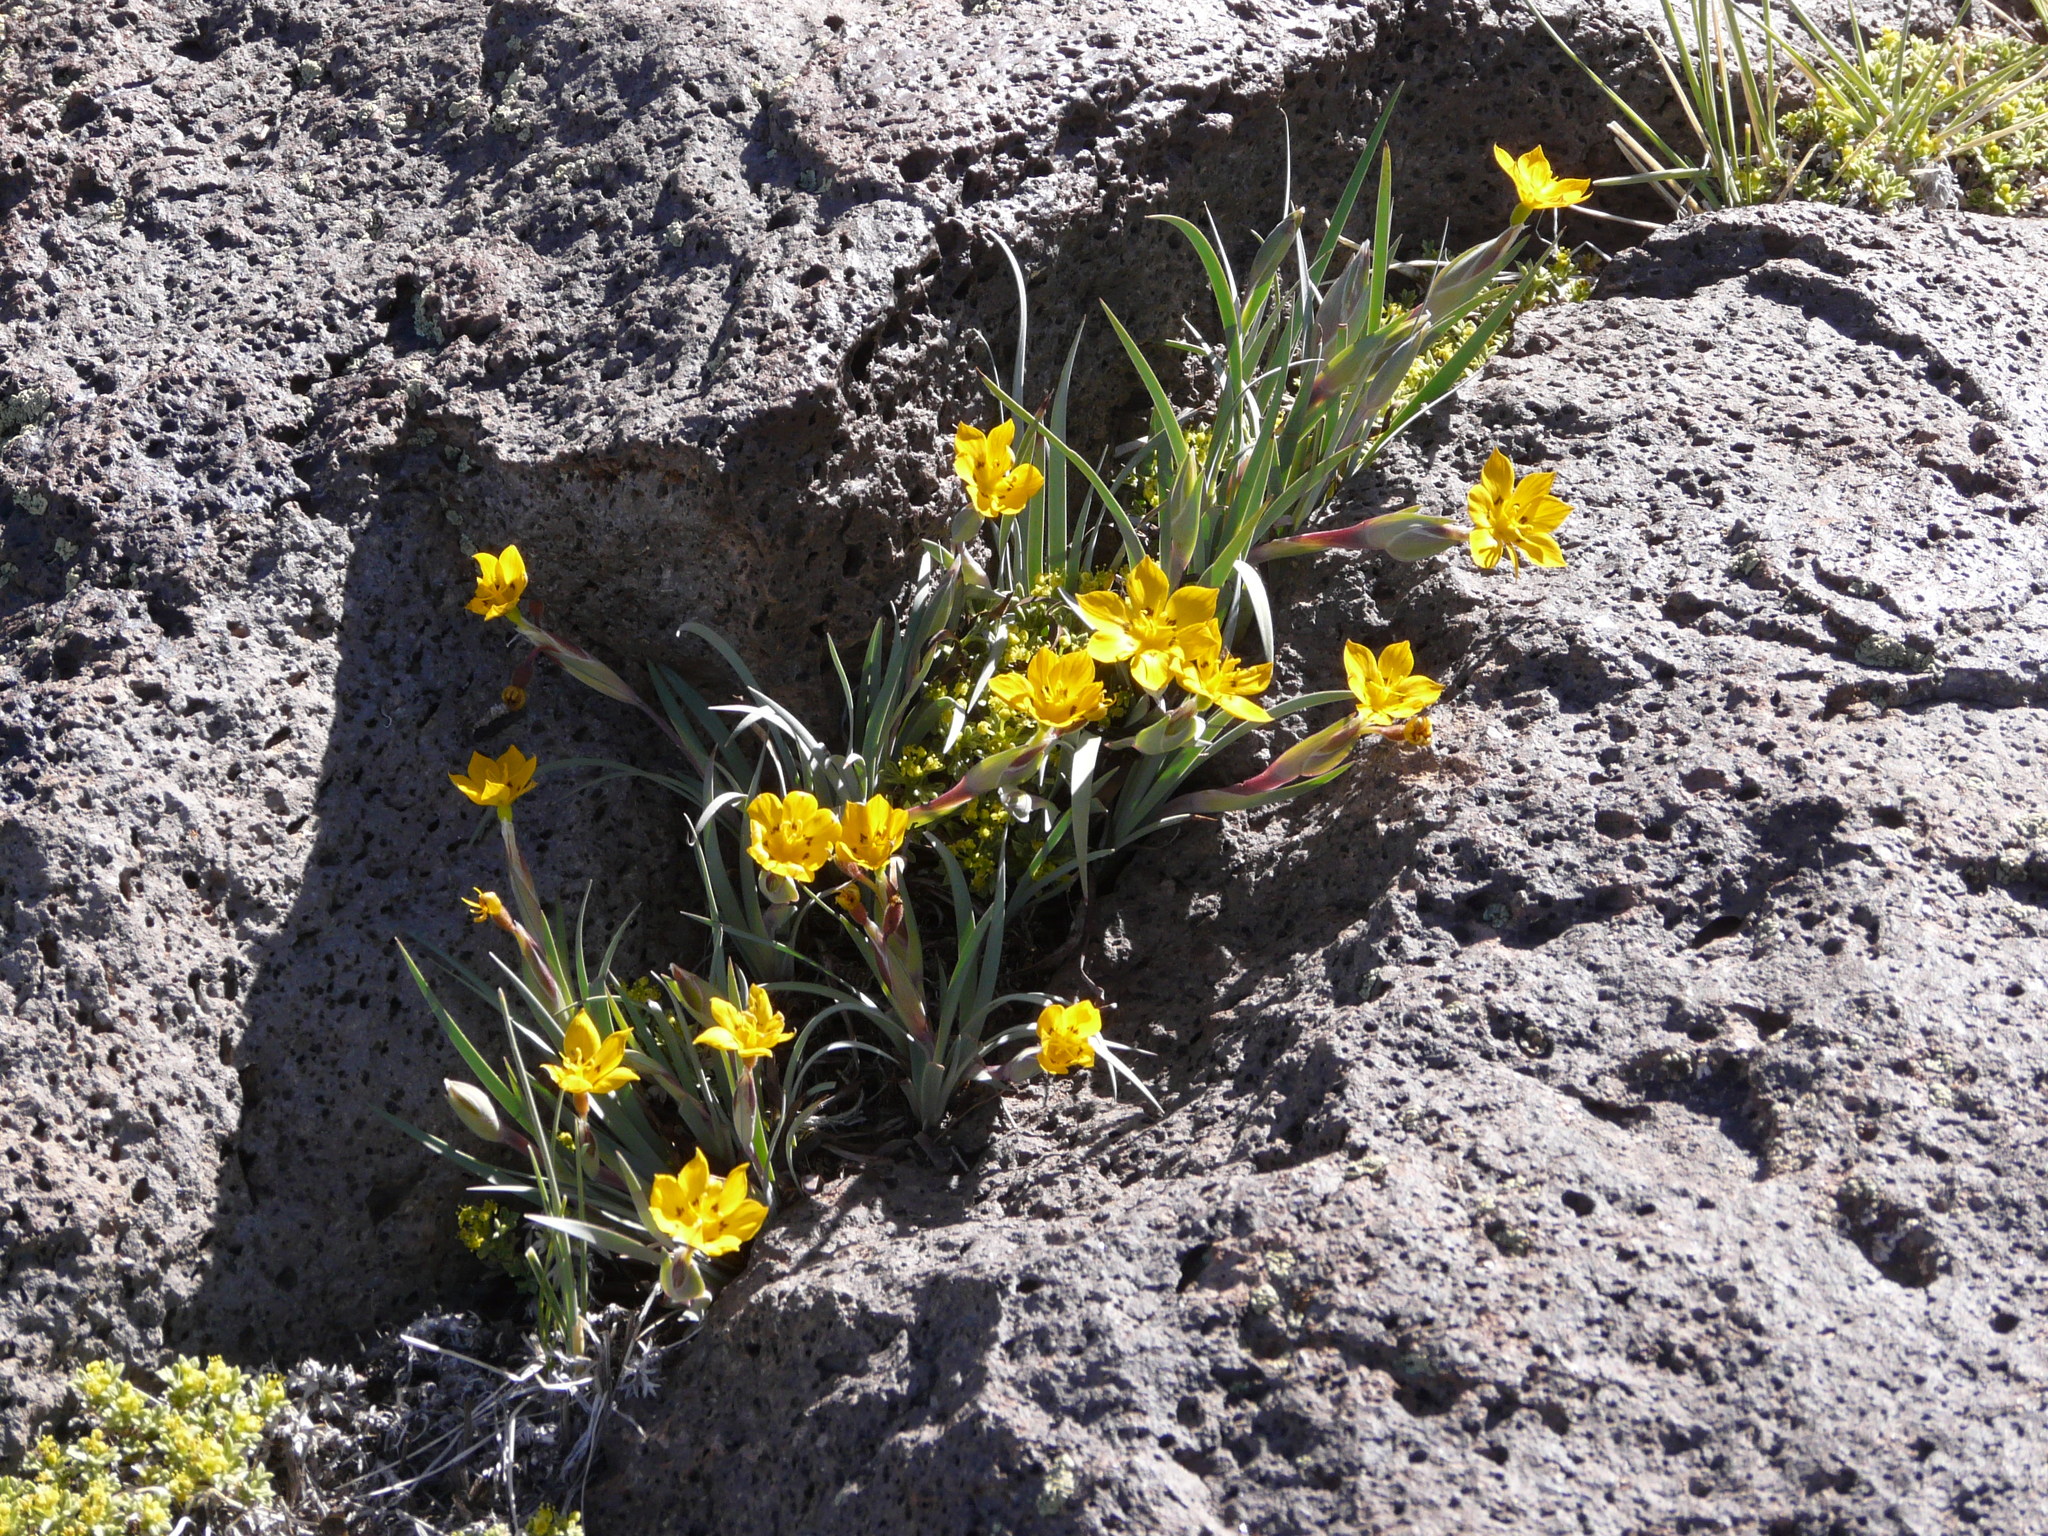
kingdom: Plantae
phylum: Tracheophyta
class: Liliopsida
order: Asparagales
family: Iridaceae
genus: Sisyrinchium
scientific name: Sisyrinchium laetum
